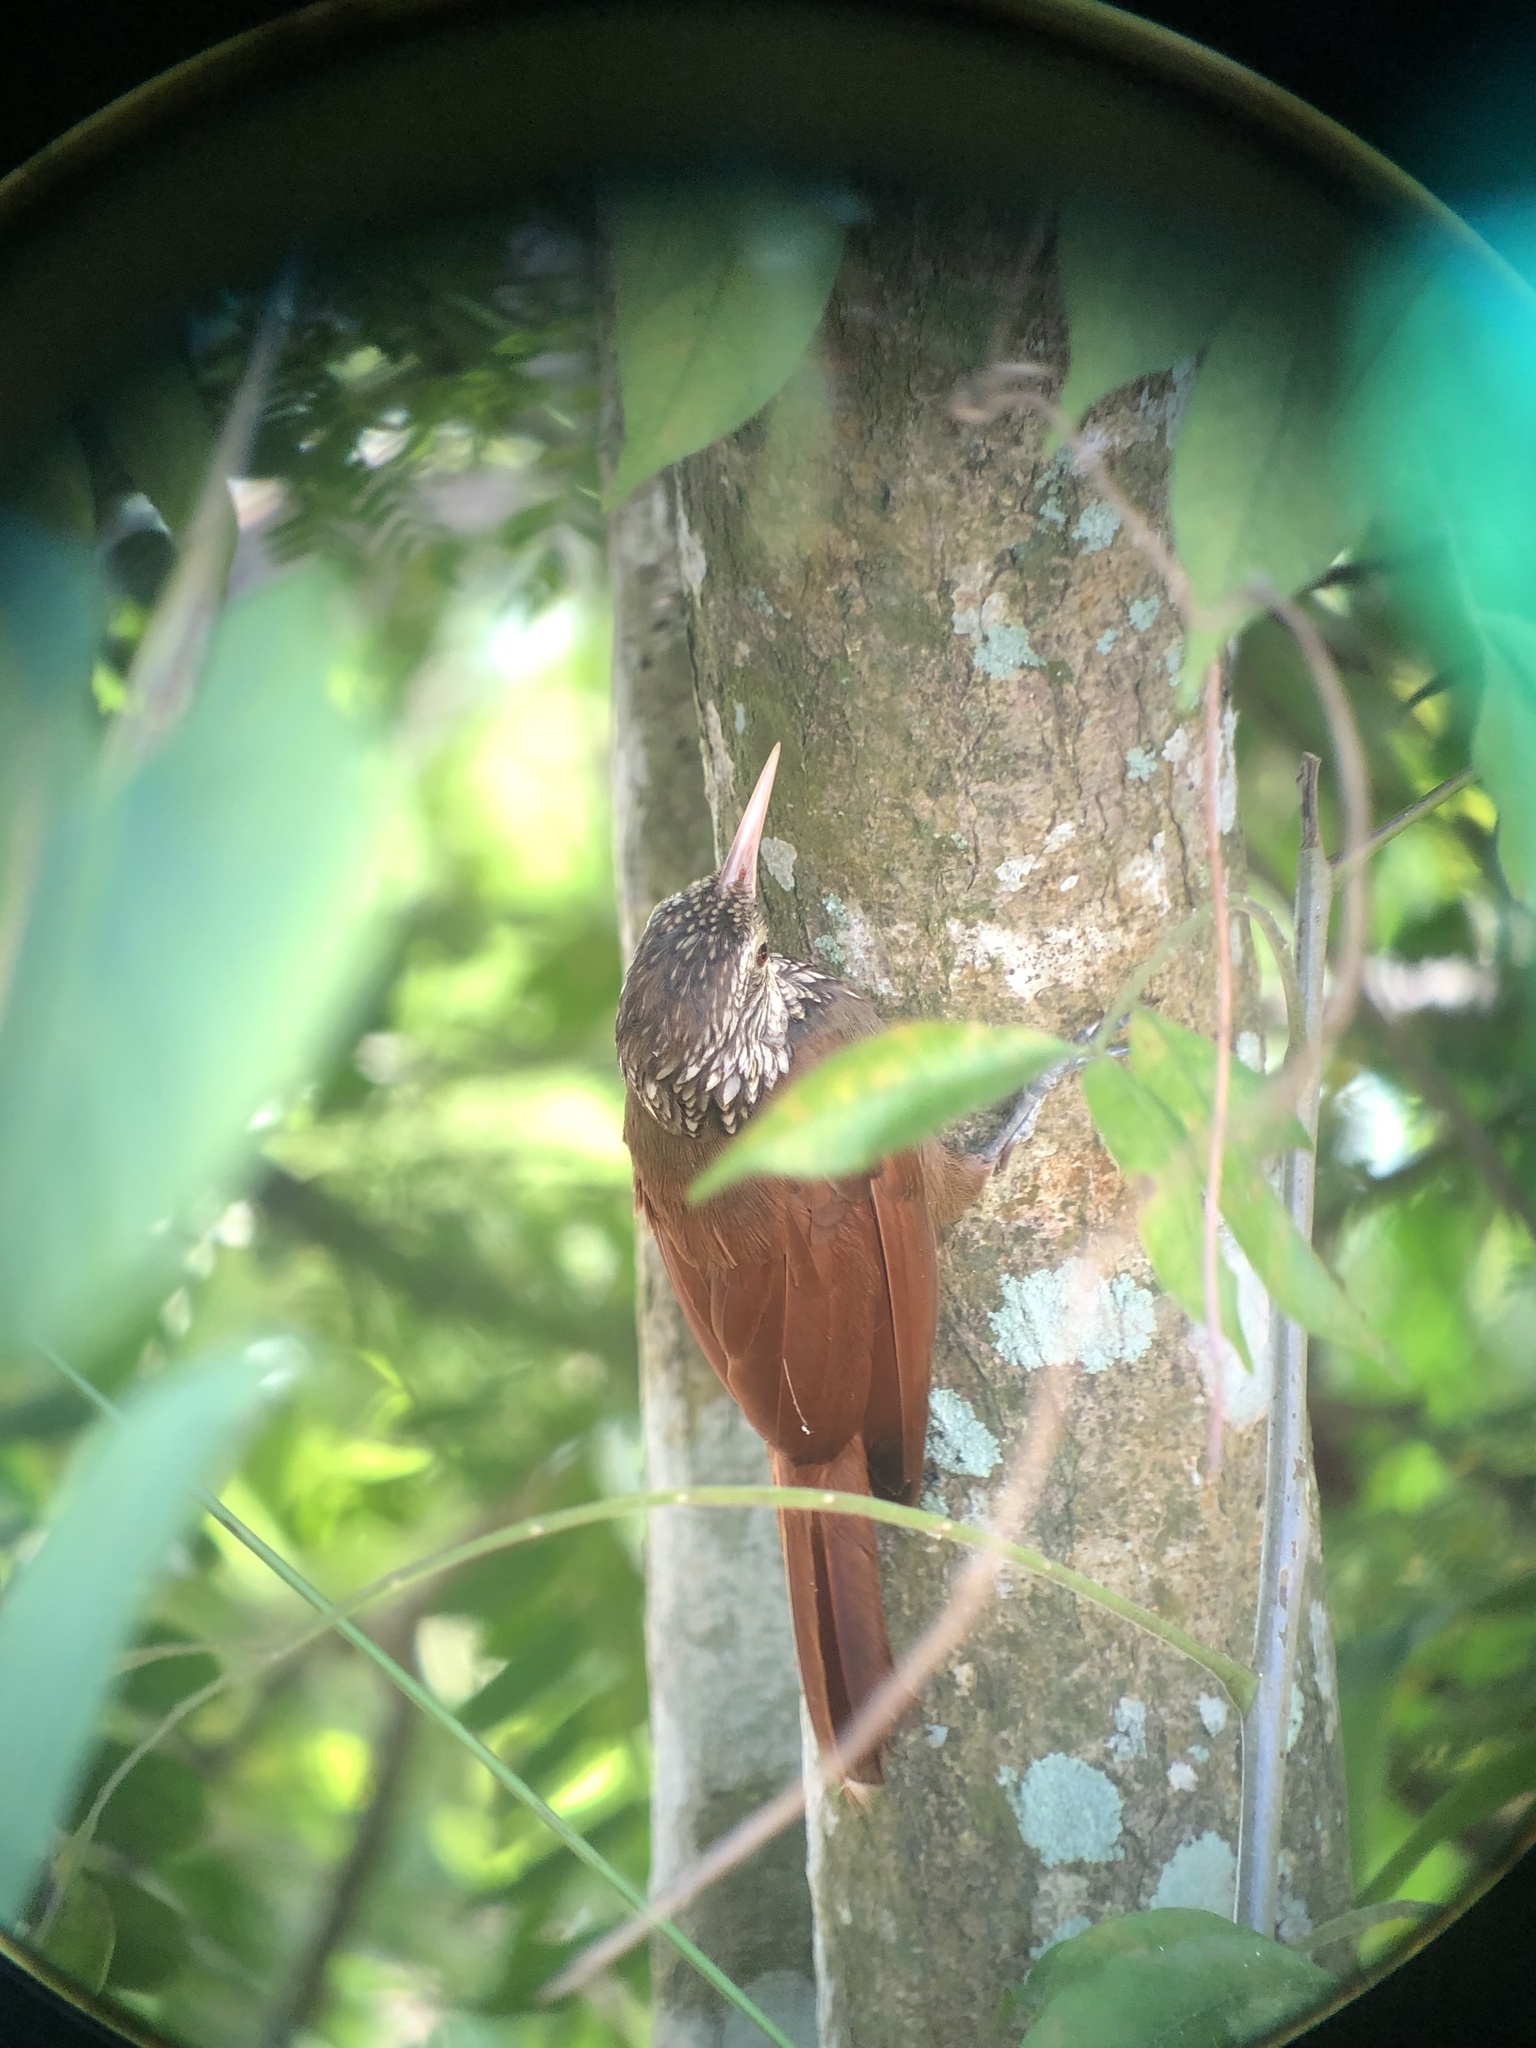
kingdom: Animalia
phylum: Chordata
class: Aves
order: Passeriformes
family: Furnariidae
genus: Xiphorhynchus
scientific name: Xiphorhynchus picus
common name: Straight-billed woodcreeper
